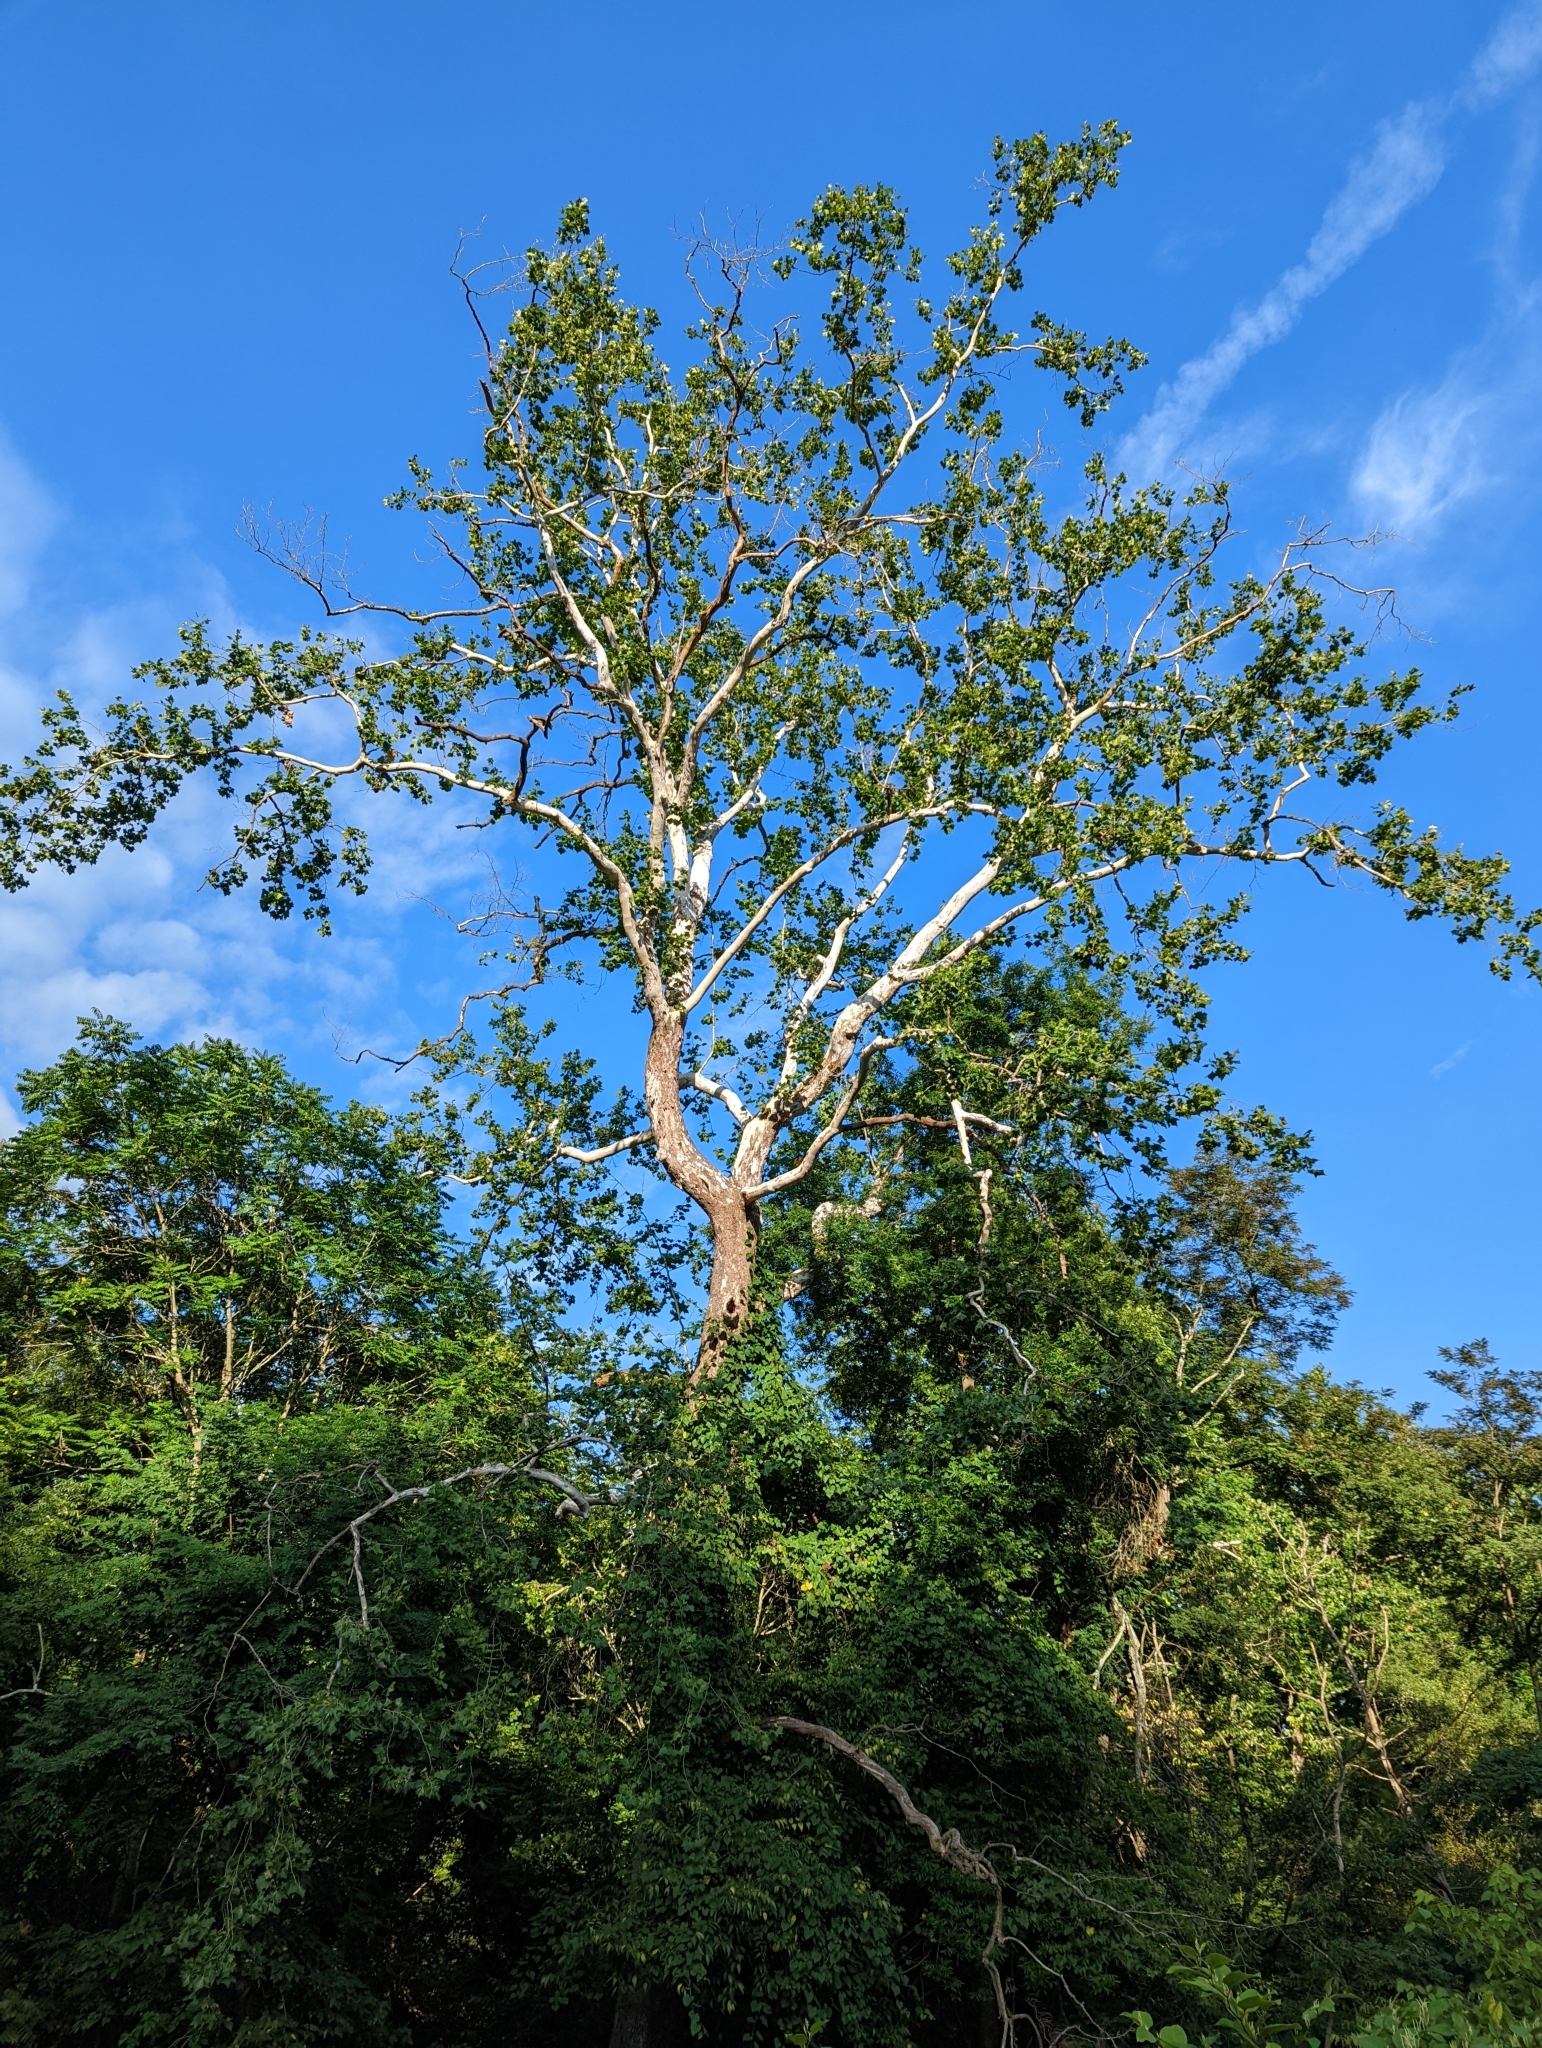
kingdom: Plantae
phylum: Tracheophyta
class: Magnoliopsida
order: Proteales
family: Platanaceae
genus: Platanus
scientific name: Platanus occidentalis
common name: American sycamore
